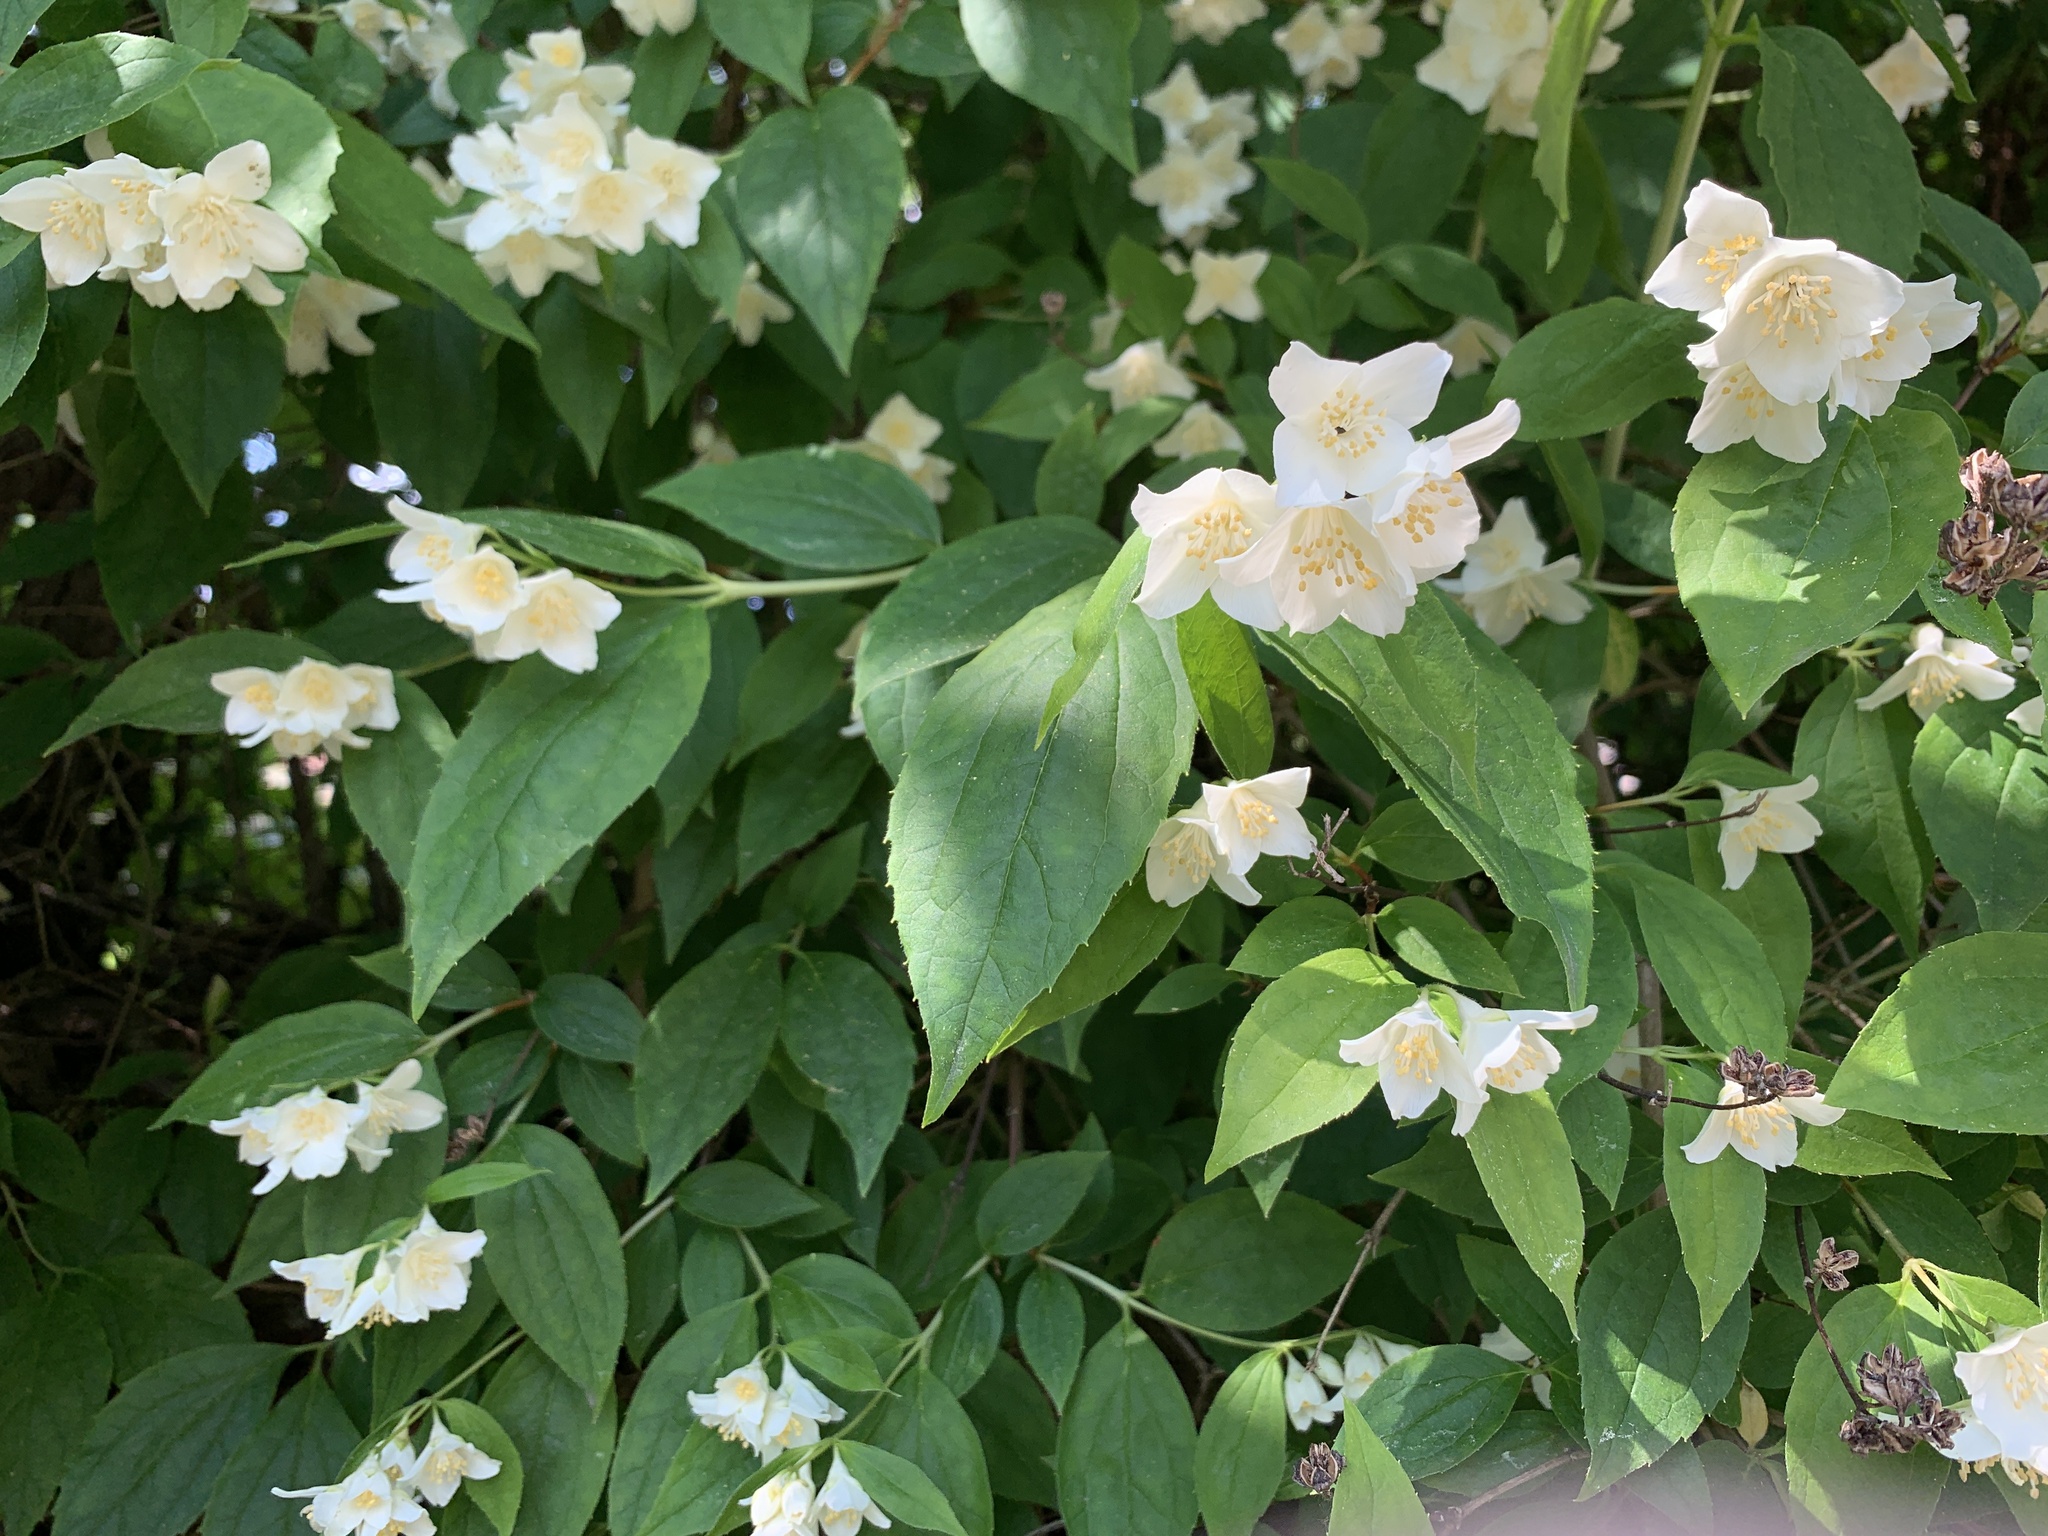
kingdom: Plantae
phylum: Tracheophyta
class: Magnoliopsida
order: Cornales
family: Hydrangeaceae
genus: Philadelphus
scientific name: Philadelphus coronarius
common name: Mock orange
